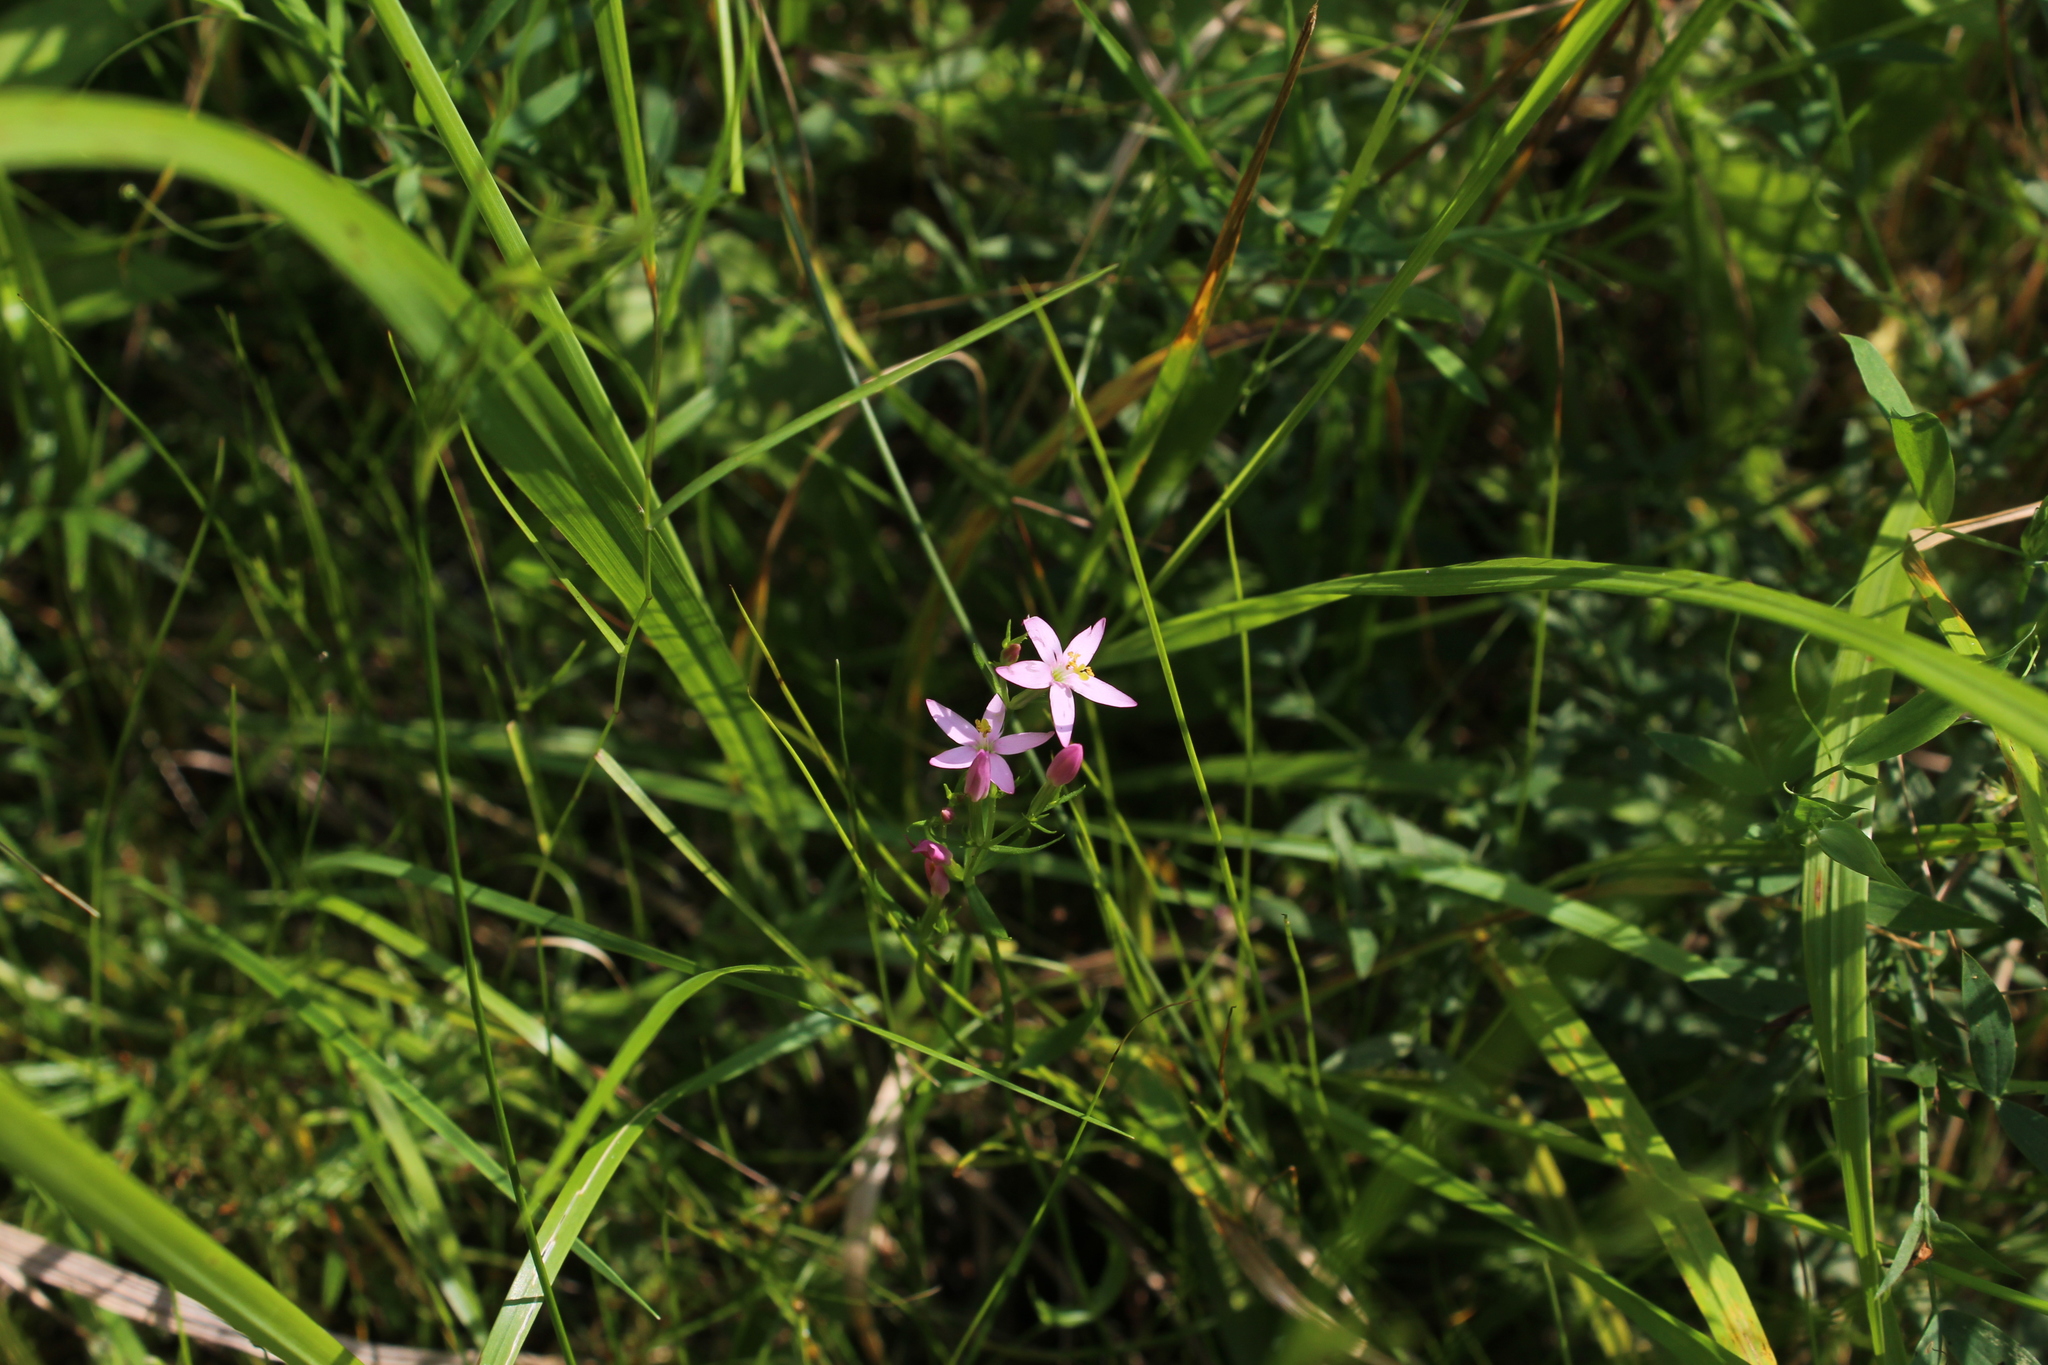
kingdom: Plantae
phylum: Tracheophyta
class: Magnoliopsida
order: Gentianales
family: Gentianaceae
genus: Centaurium
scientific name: Centaurium erythraea
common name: Common centaury
